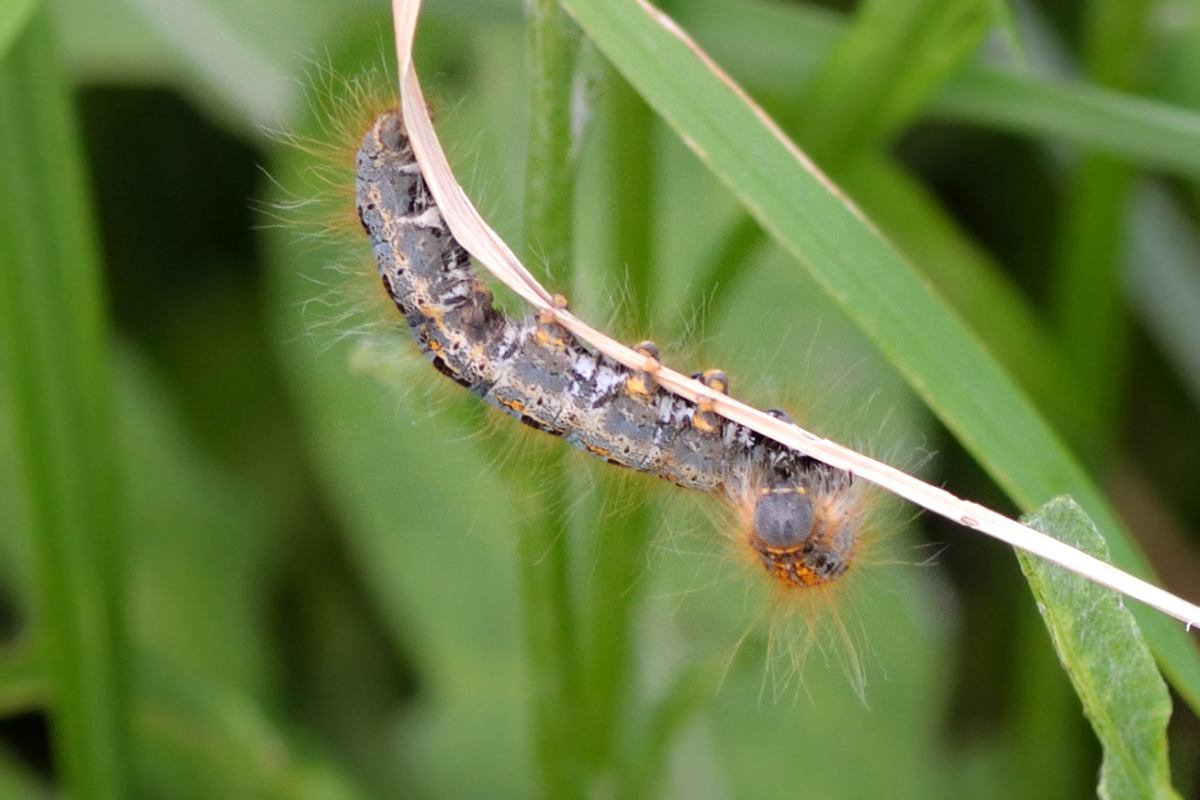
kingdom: Animalia
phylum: Arthropoda
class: Insecta
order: Lepidoptera
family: Lasiocampidae
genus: Malacosoma
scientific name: Malacosoma castrense
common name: Ground lackey
